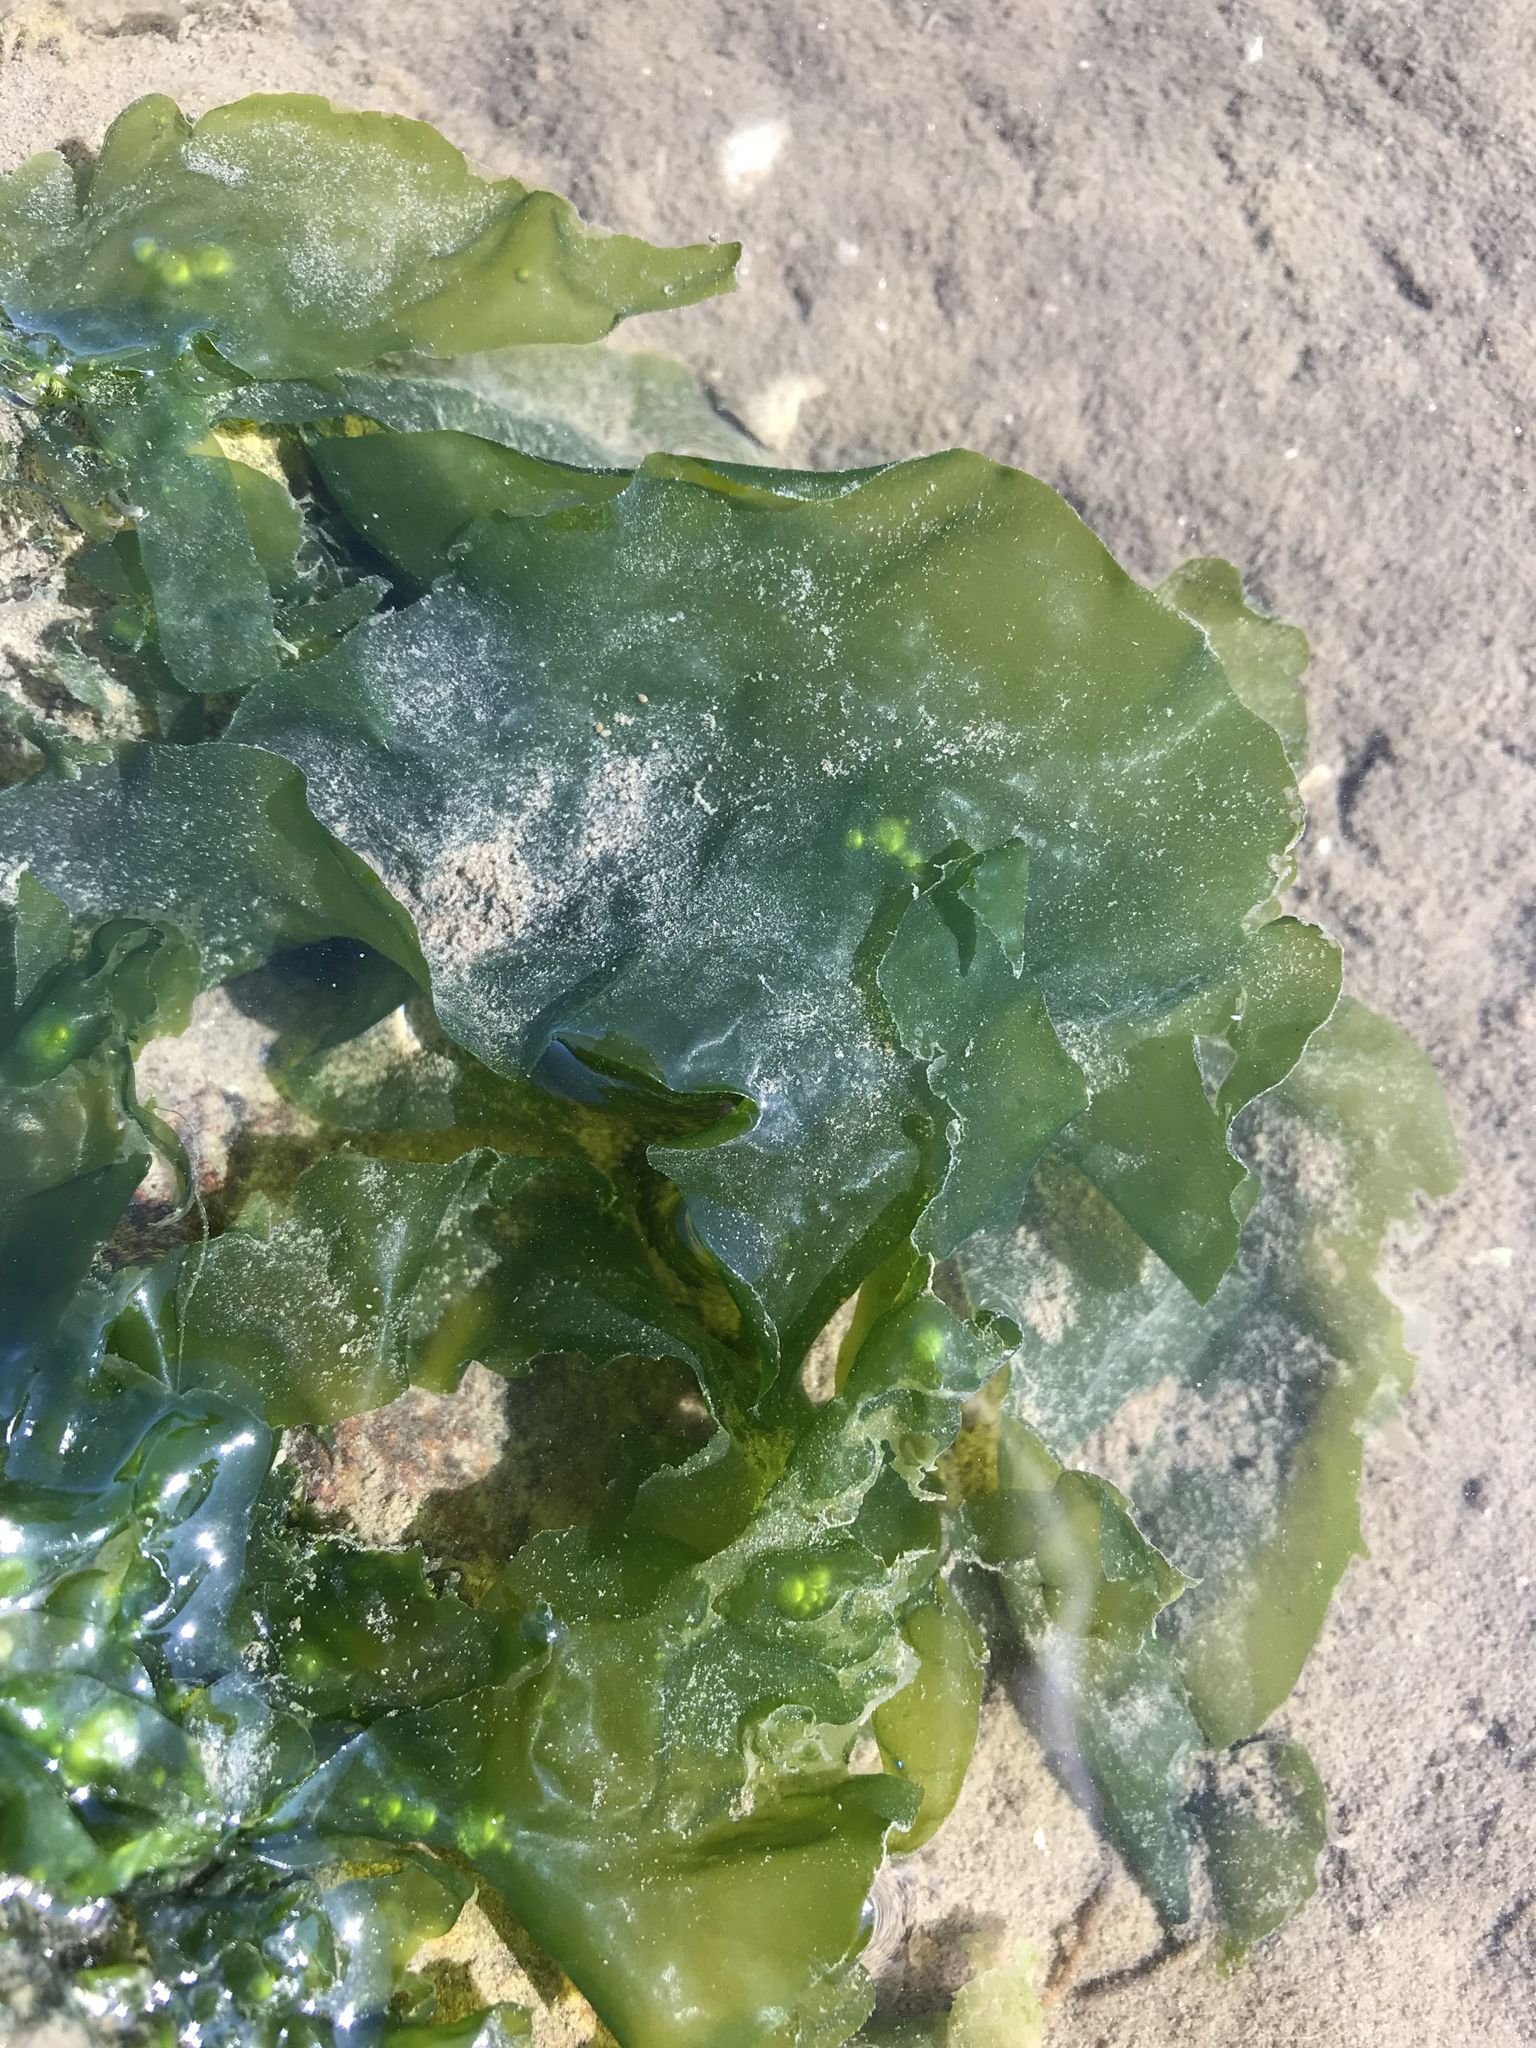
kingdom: Plantae
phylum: Chlorophyta
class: Ulvophyceae
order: Ulvales
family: Ulvaceae
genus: Ulva
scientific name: Ulva lactuca
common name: Sea lettuce
